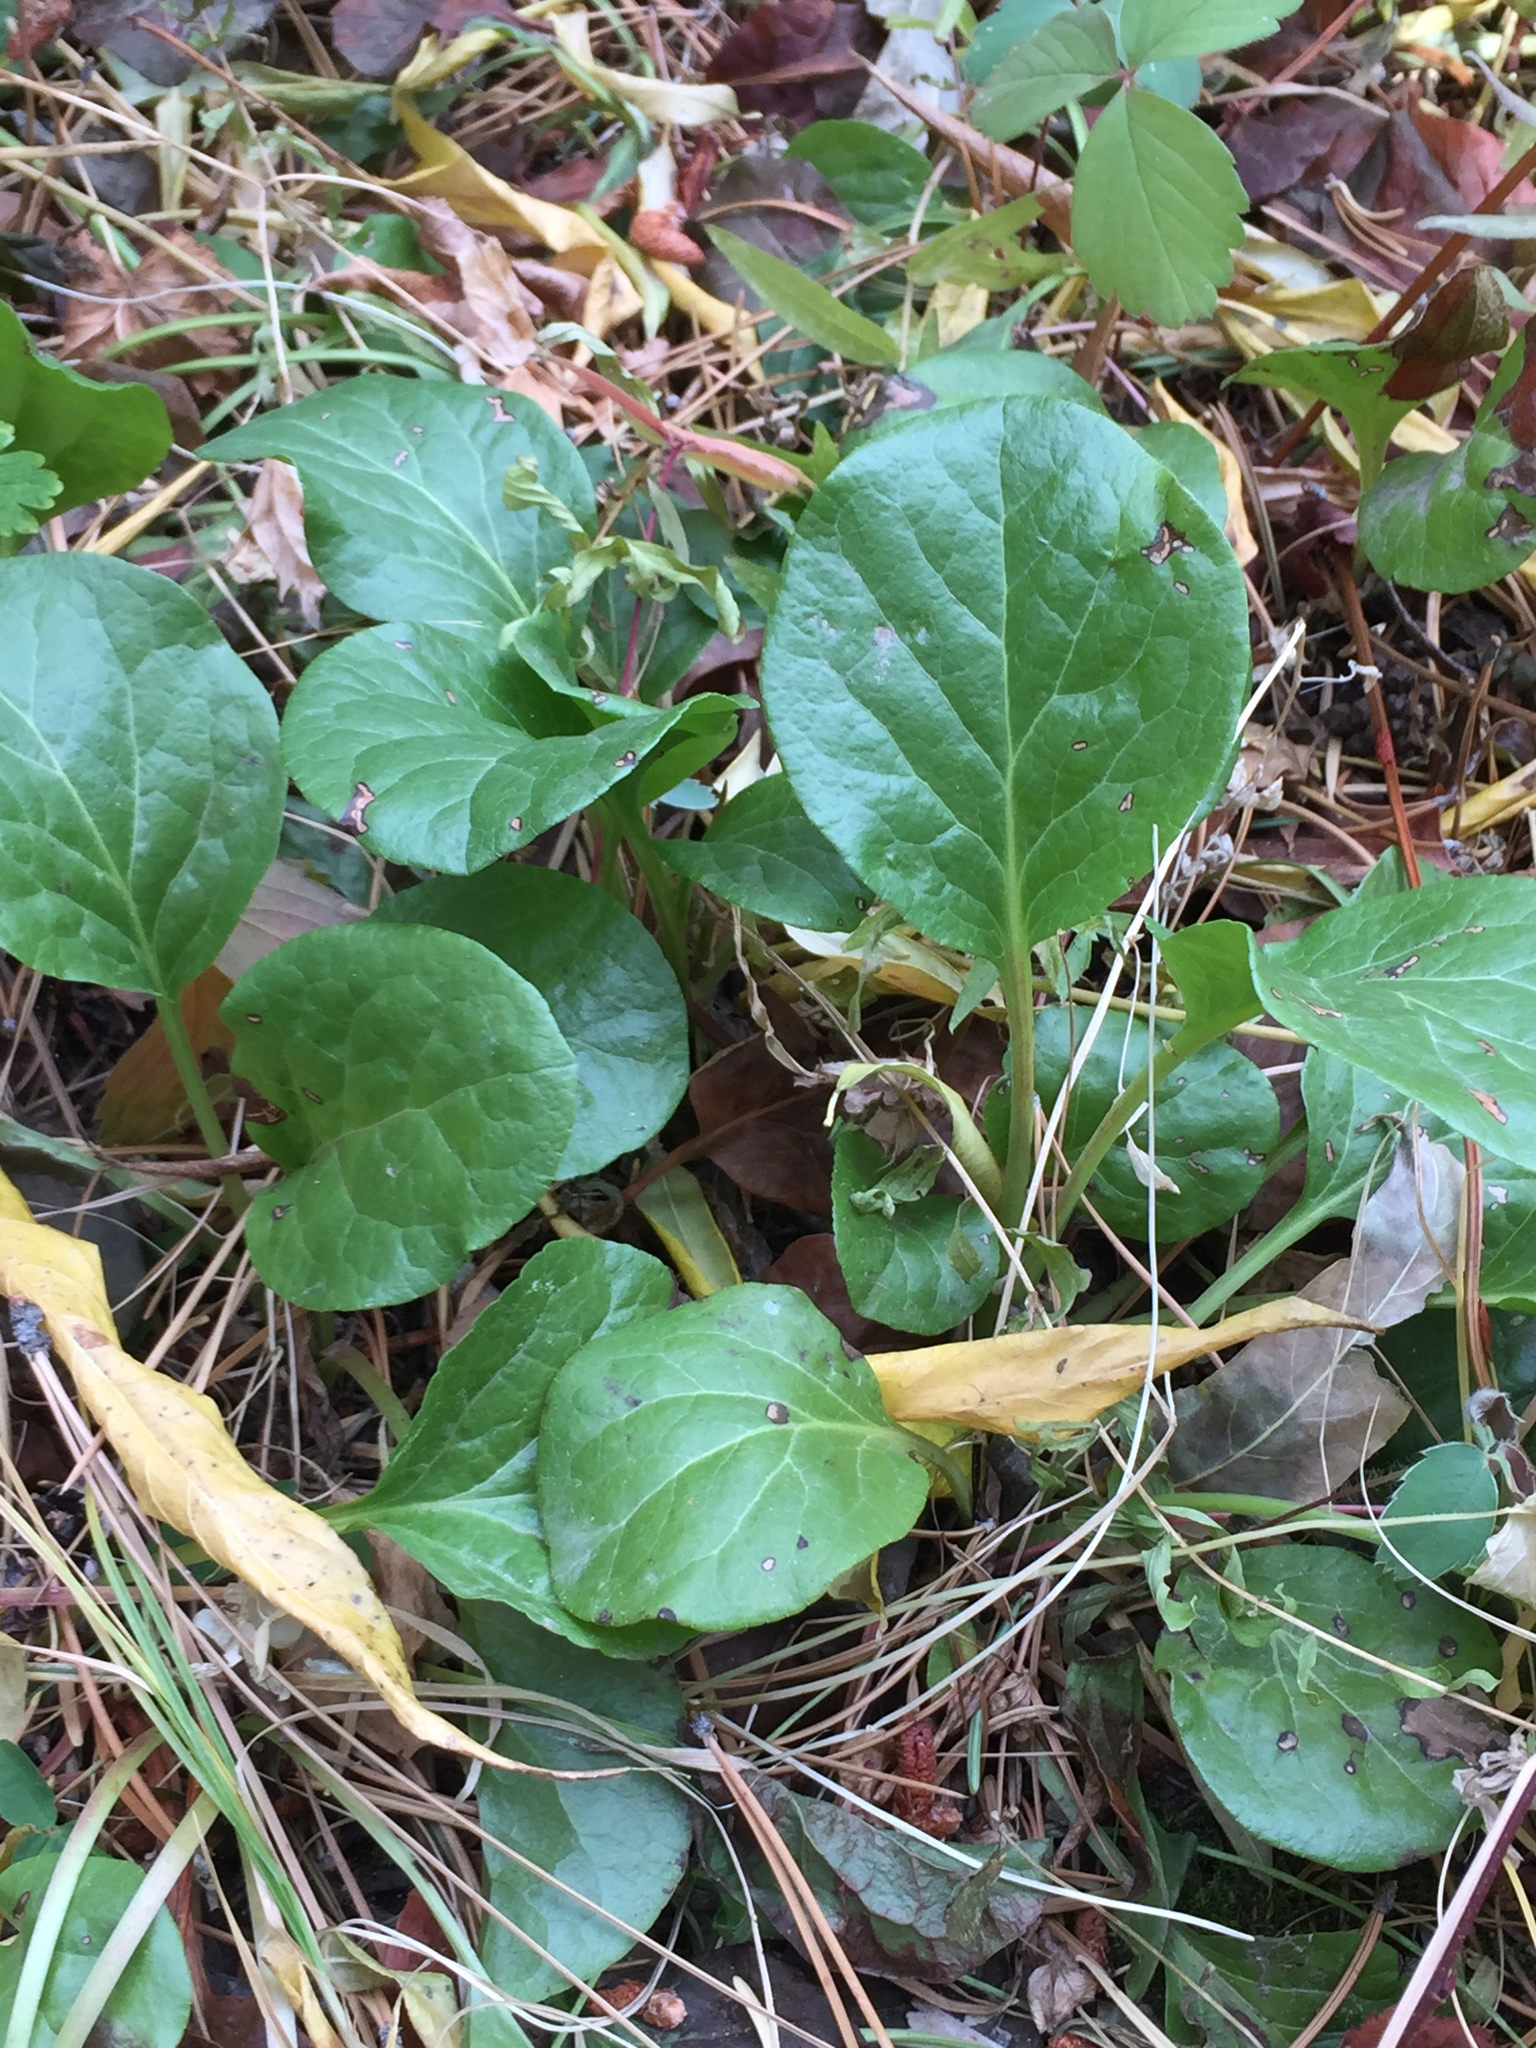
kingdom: Plantae
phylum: Tracheophyta
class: Magnoliopsida
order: Ericales
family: Ericaceae
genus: Pyrola
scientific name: Pyrola asarifolia
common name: Bog wintergreen
